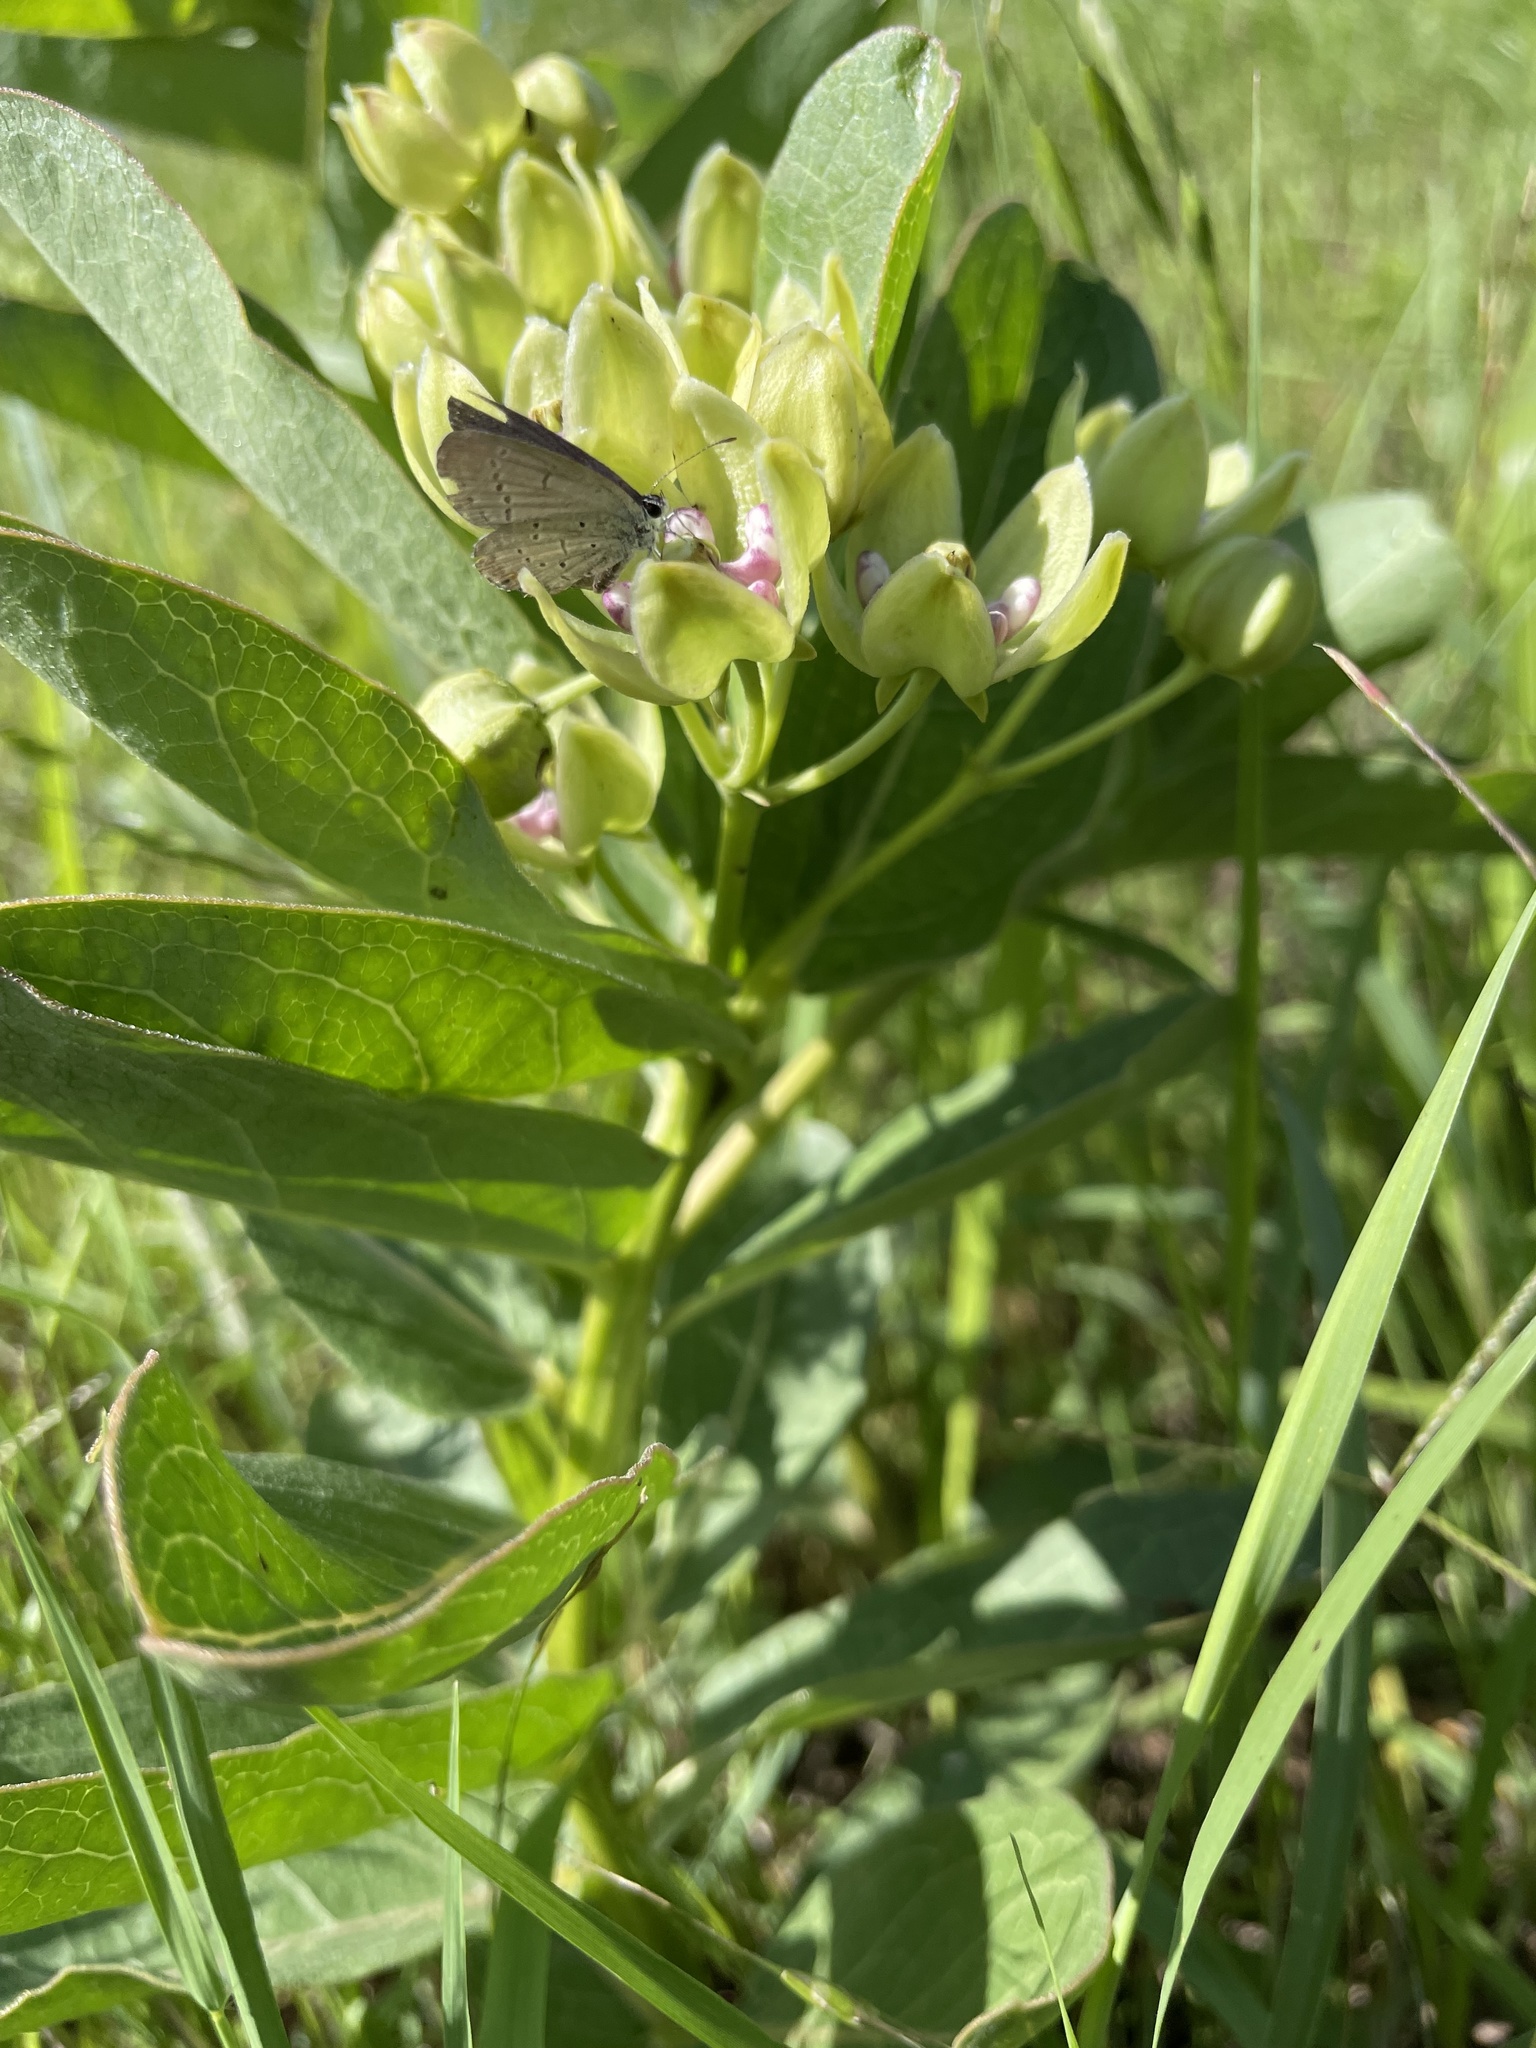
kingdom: Animalia
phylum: Arthropoda
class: Insecta
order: Lepidoptera
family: Lycaenidae
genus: Elkalyce
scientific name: Elkalyce comyntas
